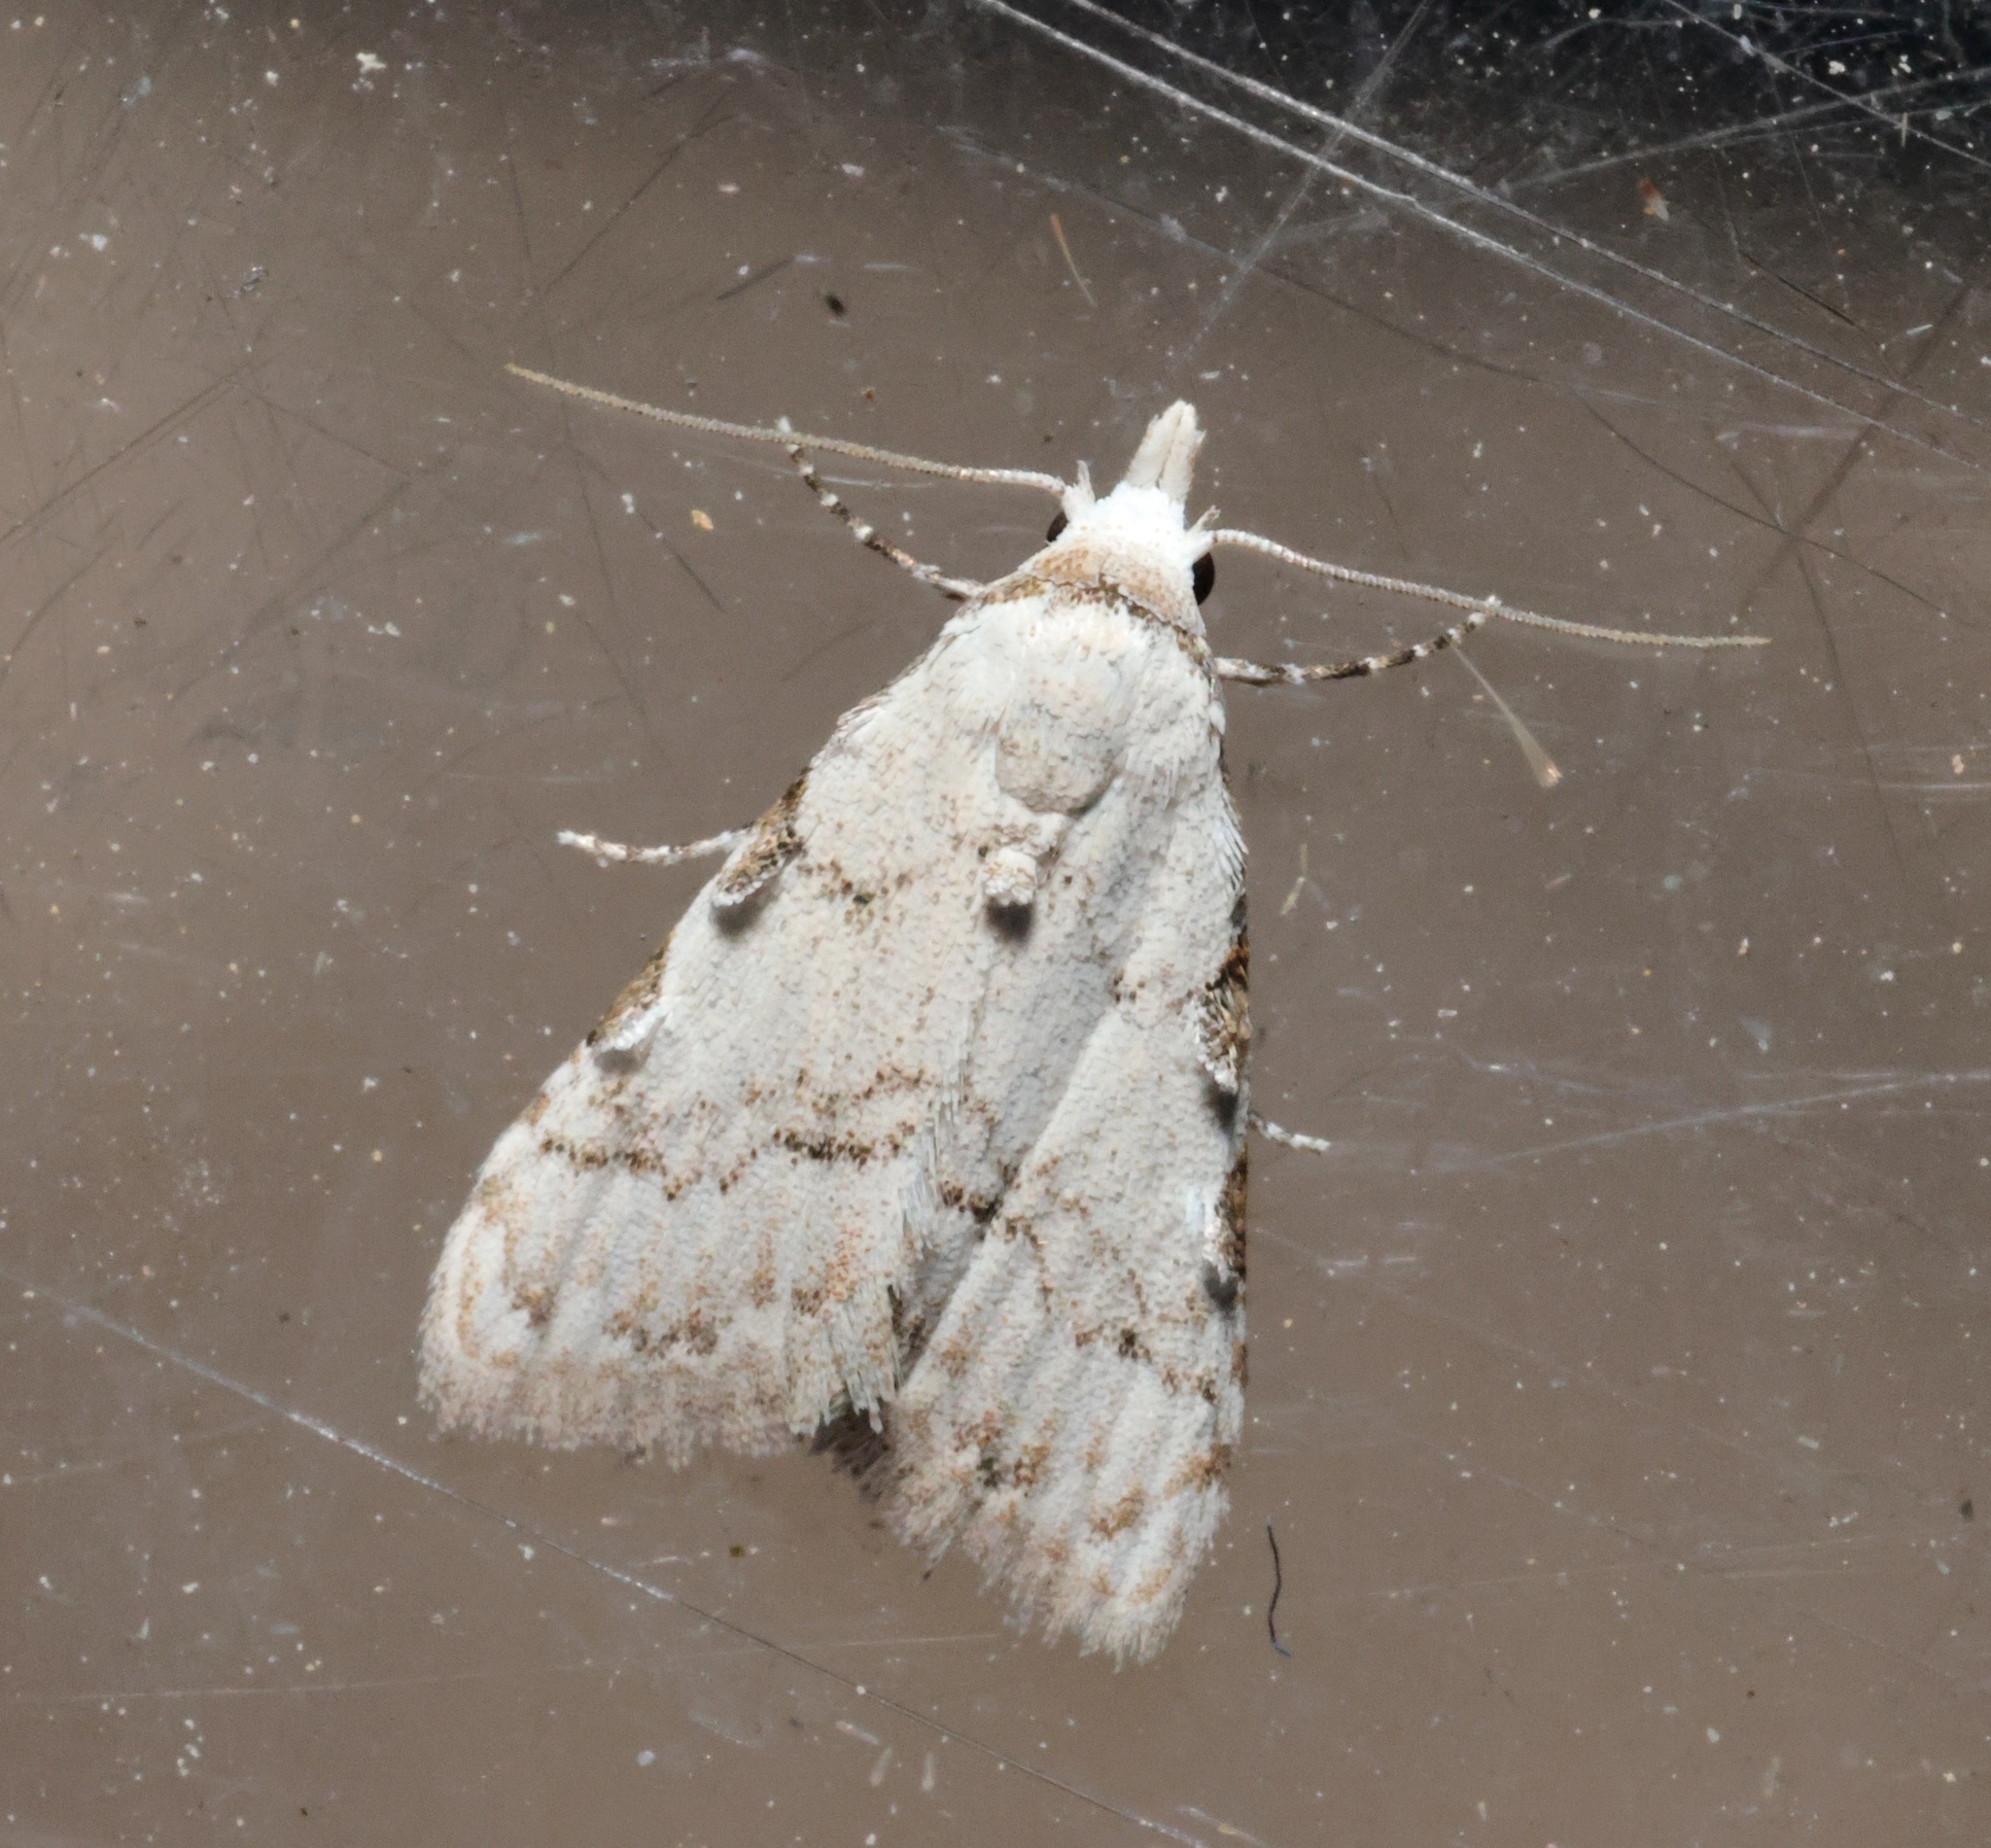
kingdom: Animalia
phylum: Arthropoda
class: Insecta
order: Lepidoptera
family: Nolidae
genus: Nola
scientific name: Nola pascua
